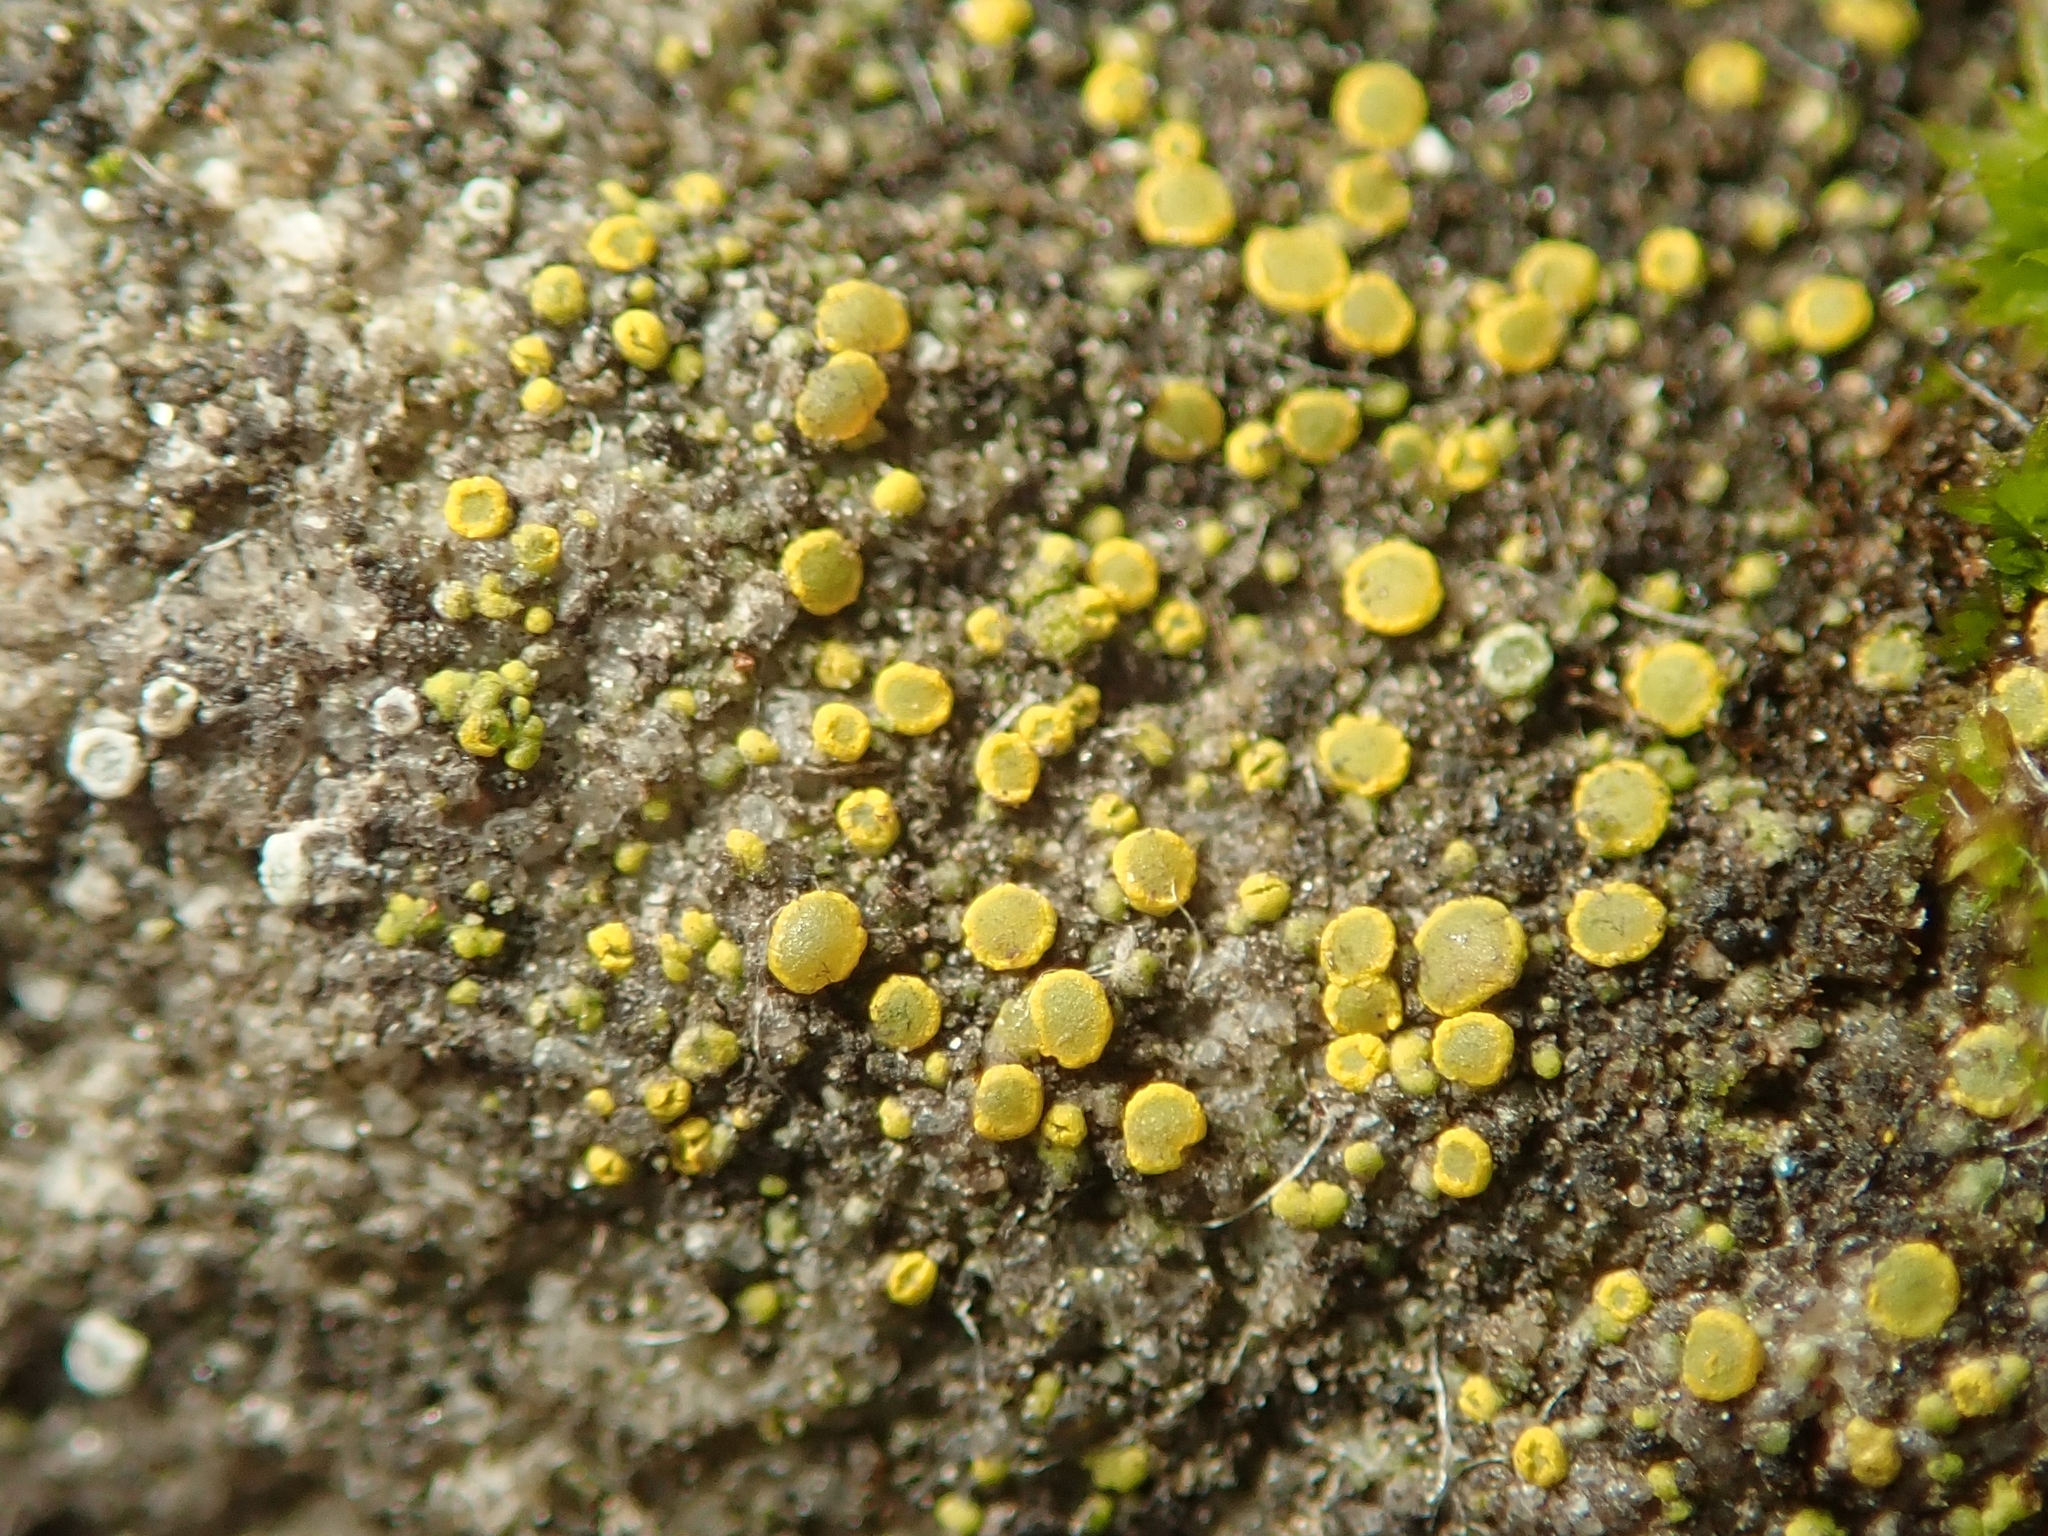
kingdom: Fungi
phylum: Ascomycota
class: Candelariomycetes
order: Candelariales
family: Candelariaceae
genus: Candelariella
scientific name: Candelariella aurella
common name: Hidden goldspeck lichen
